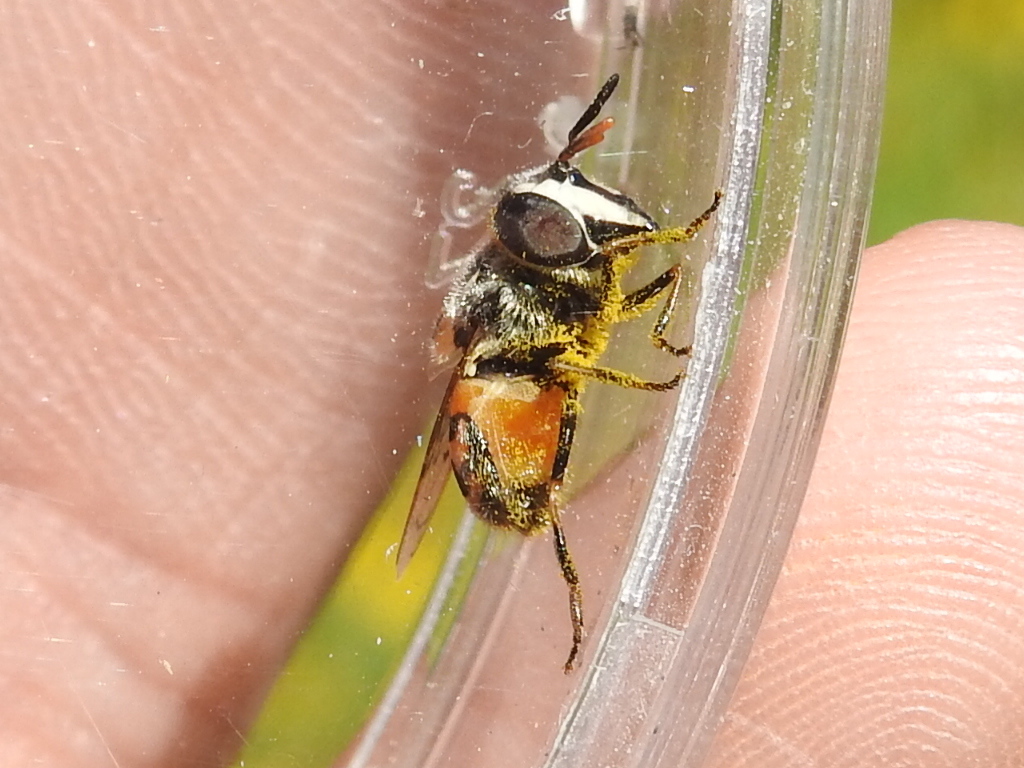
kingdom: Animalia
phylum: Arthropoda
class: Insecta
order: Diptera
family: Syrphidae
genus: Copestylum
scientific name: Copestylum marginatum
